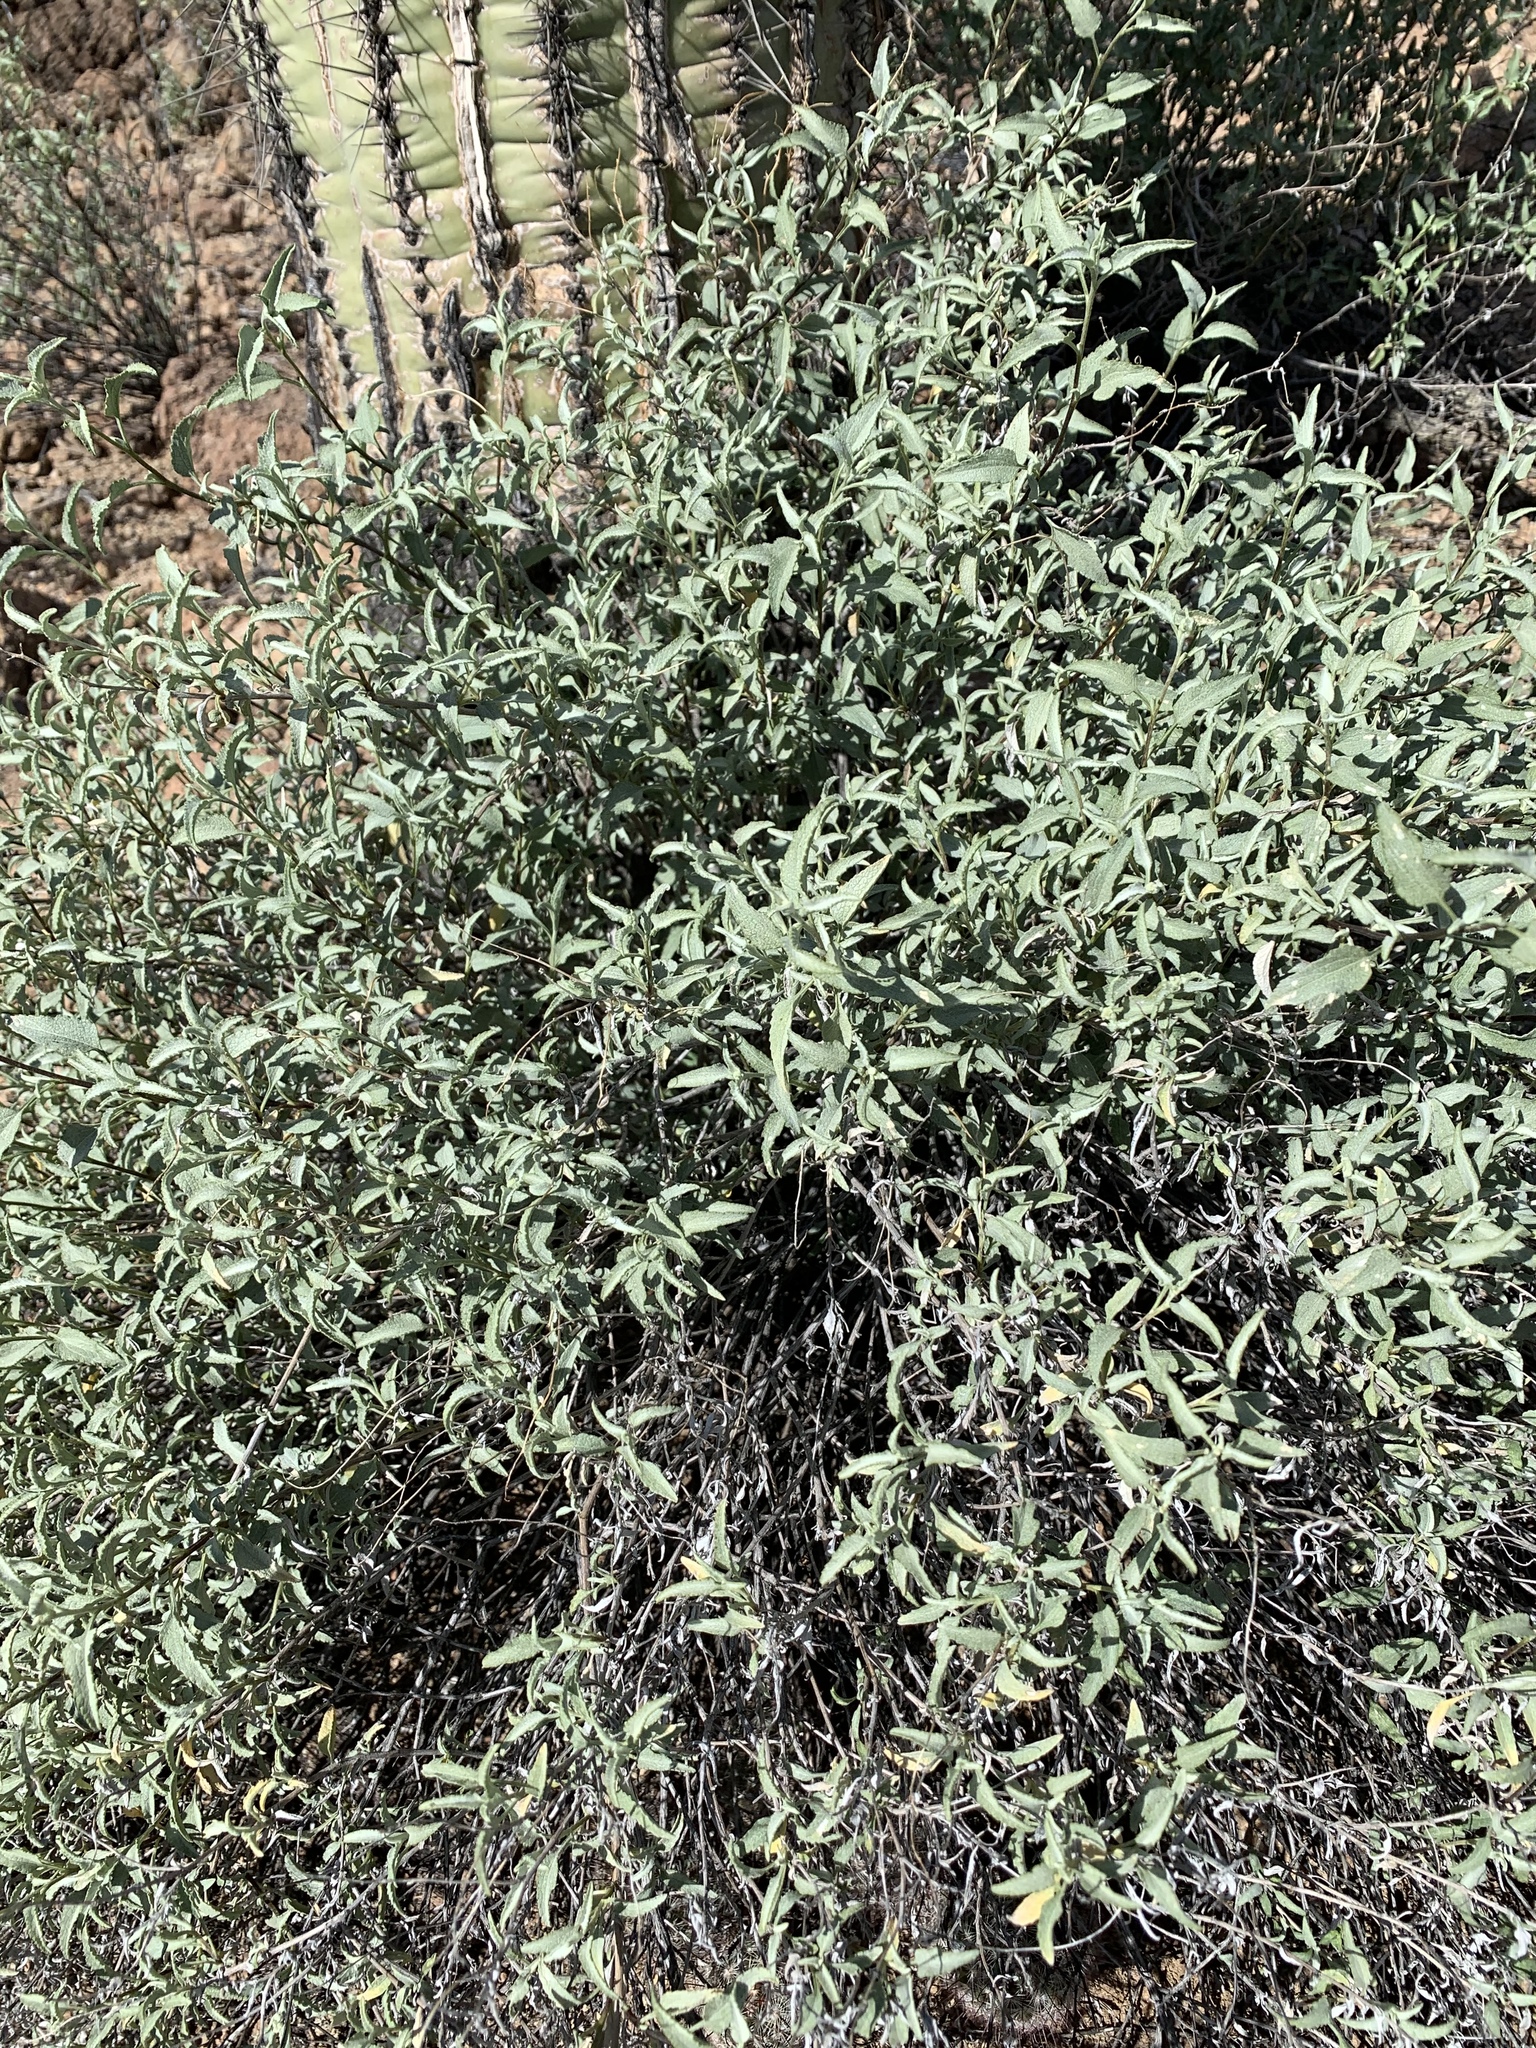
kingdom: Plantae
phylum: Tracheophyta
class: Magnoliopsida
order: Asterales
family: Asteraceae
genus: Ambrosia
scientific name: Ambrosia deltoidea
